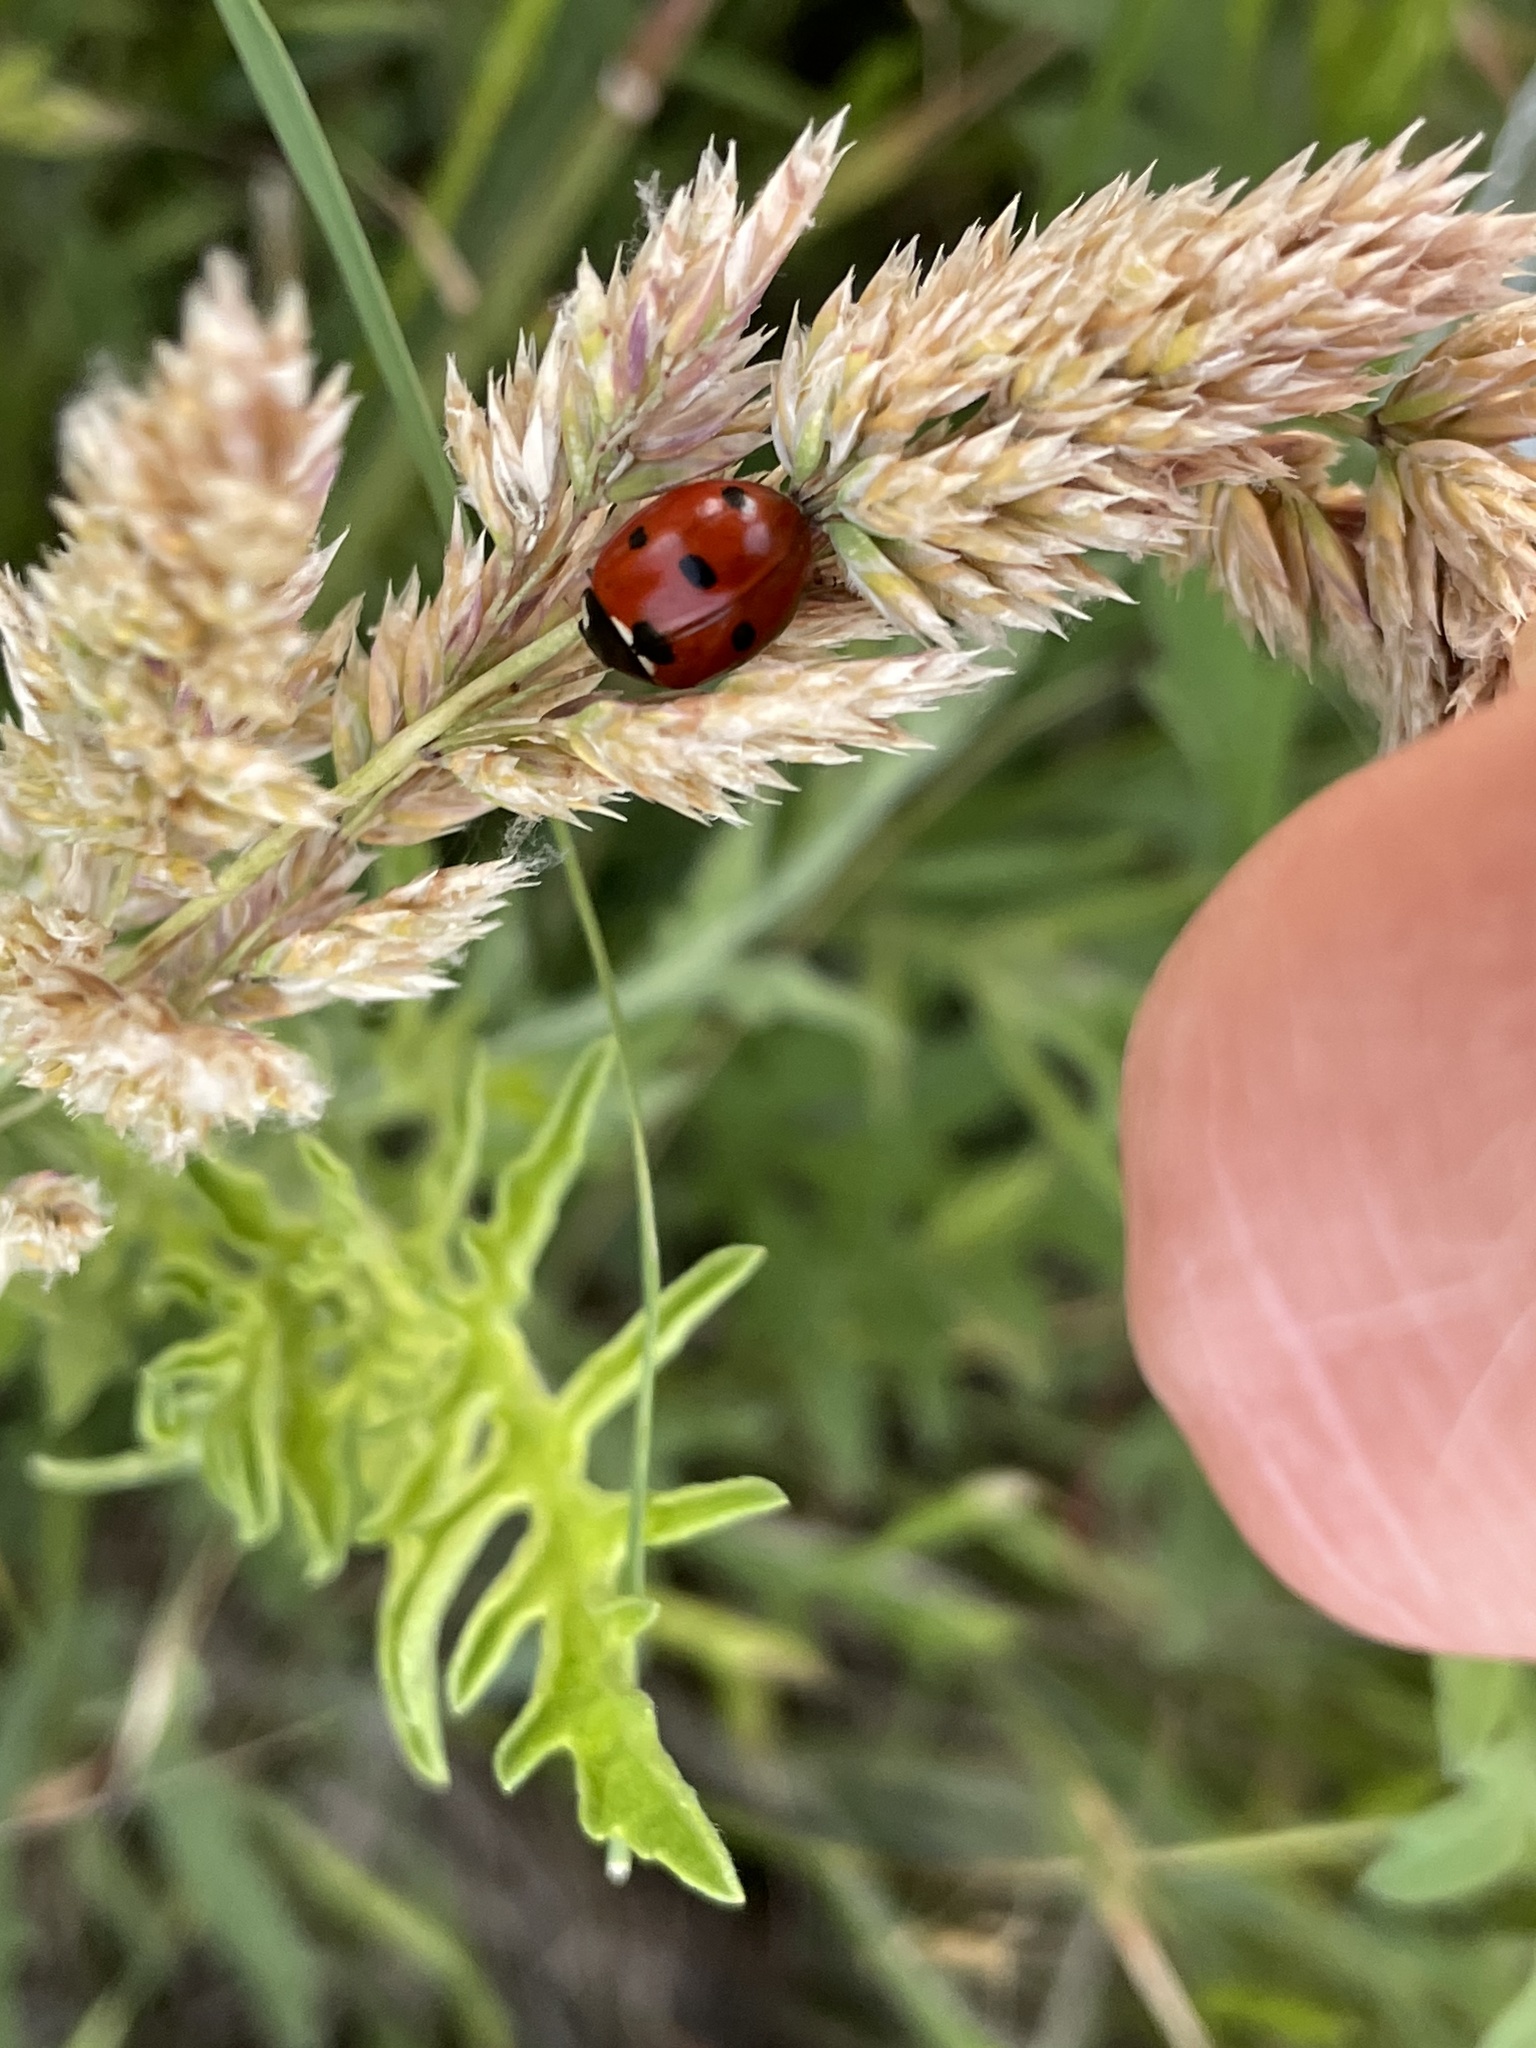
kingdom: Animalia
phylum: Arthropoda
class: Insecta
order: Coleoptera
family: Coccinellidae
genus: Coccinella
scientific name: Coccinella septempunctata
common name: Sevenspotted lady beetle
